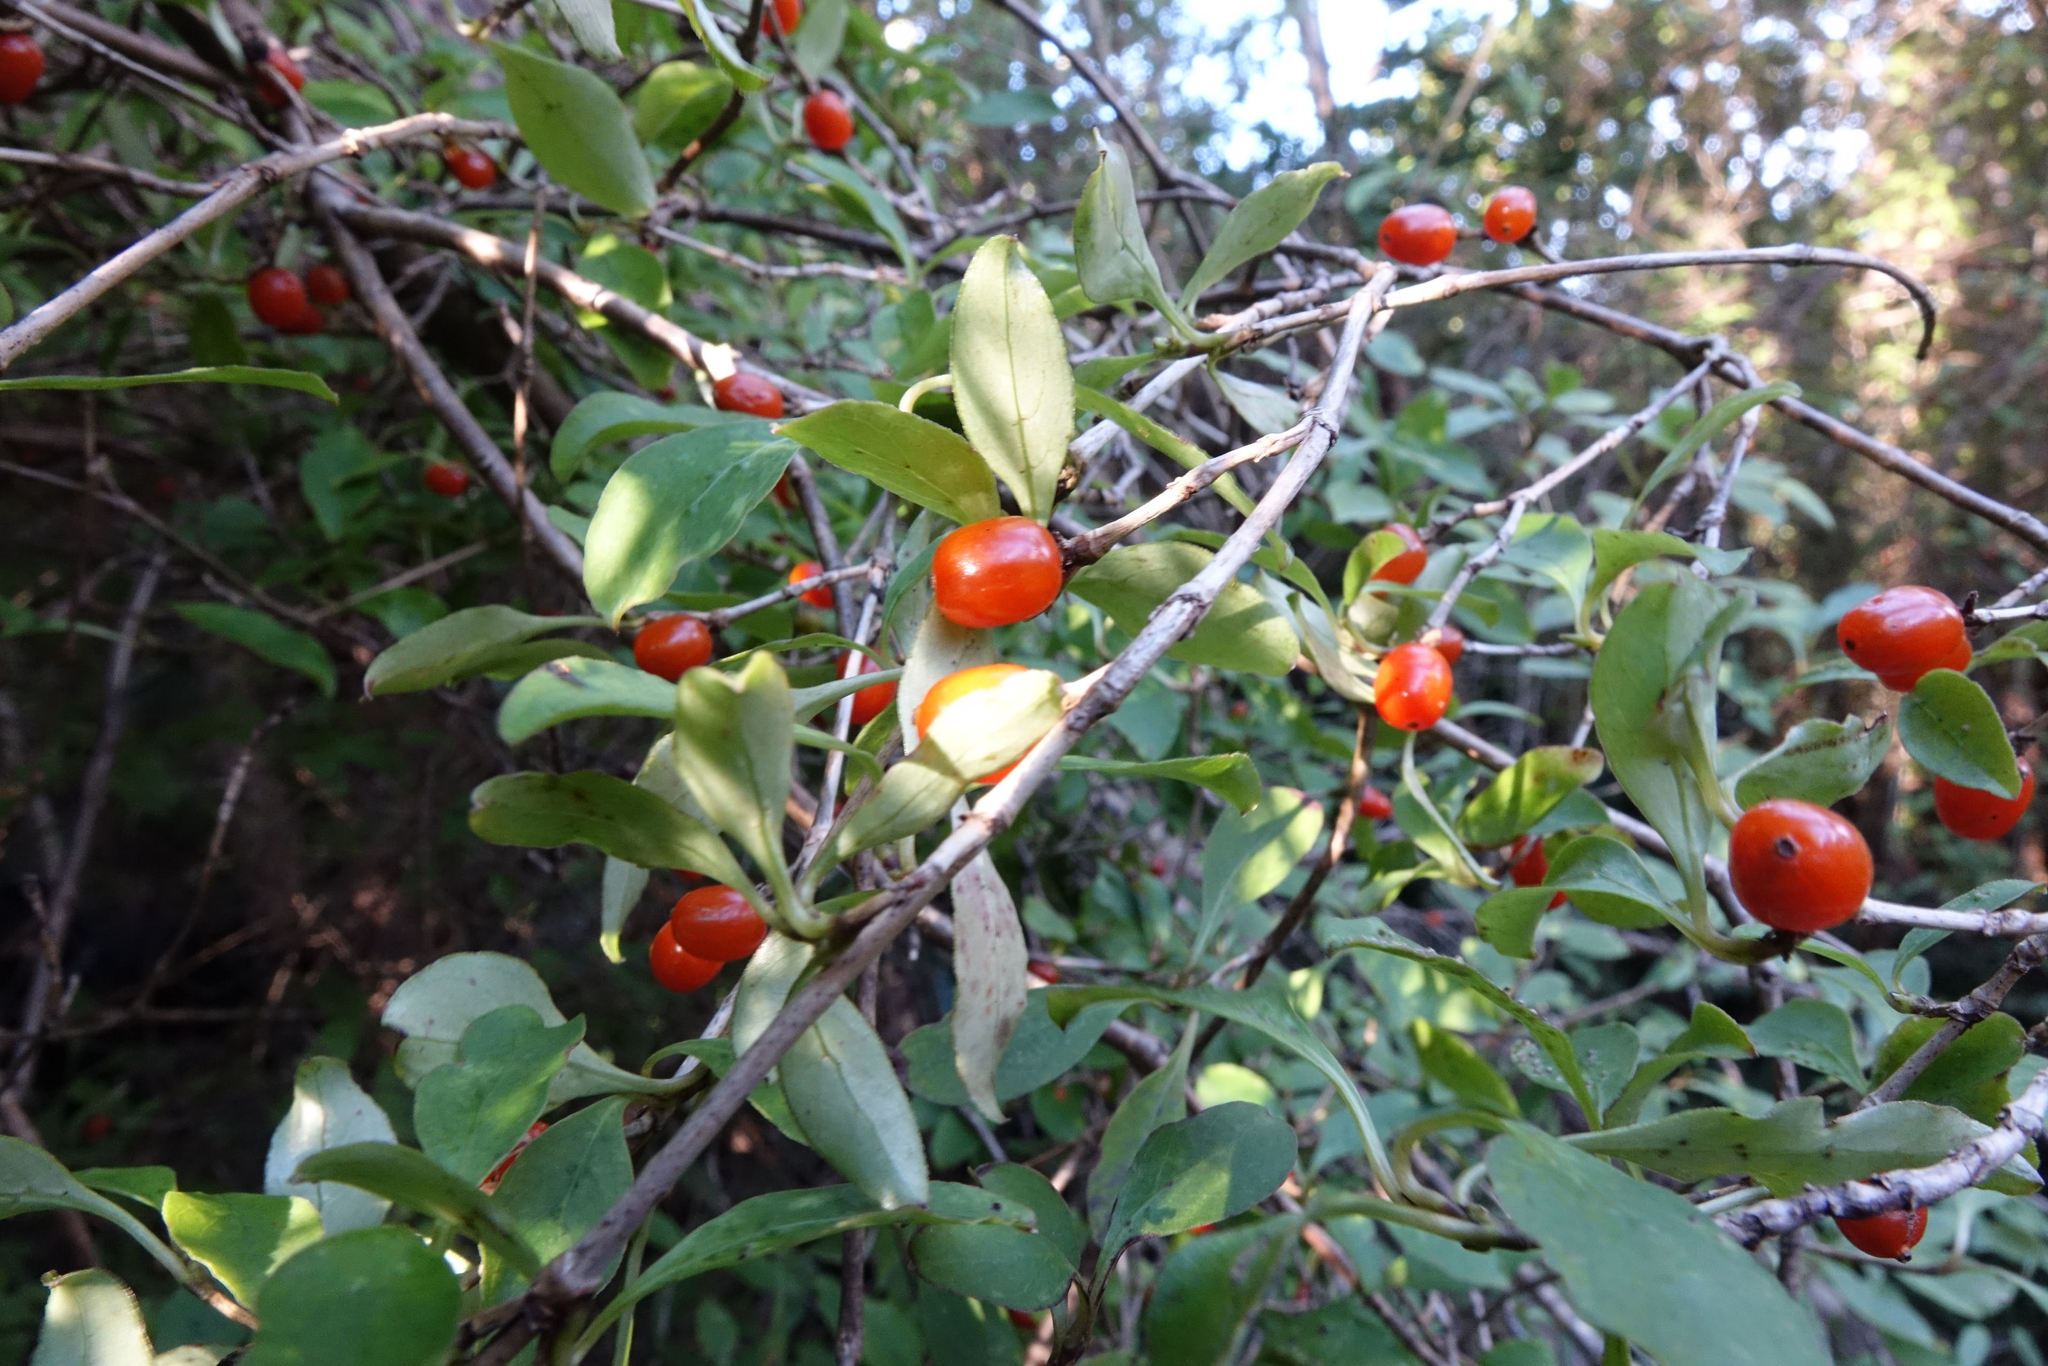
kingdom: Plantae
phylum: Tracheophyta
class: Magnoliopsida
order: Gentianales
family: Rubiaceae
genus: Coprosma
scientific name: Coprosma foetidissima
